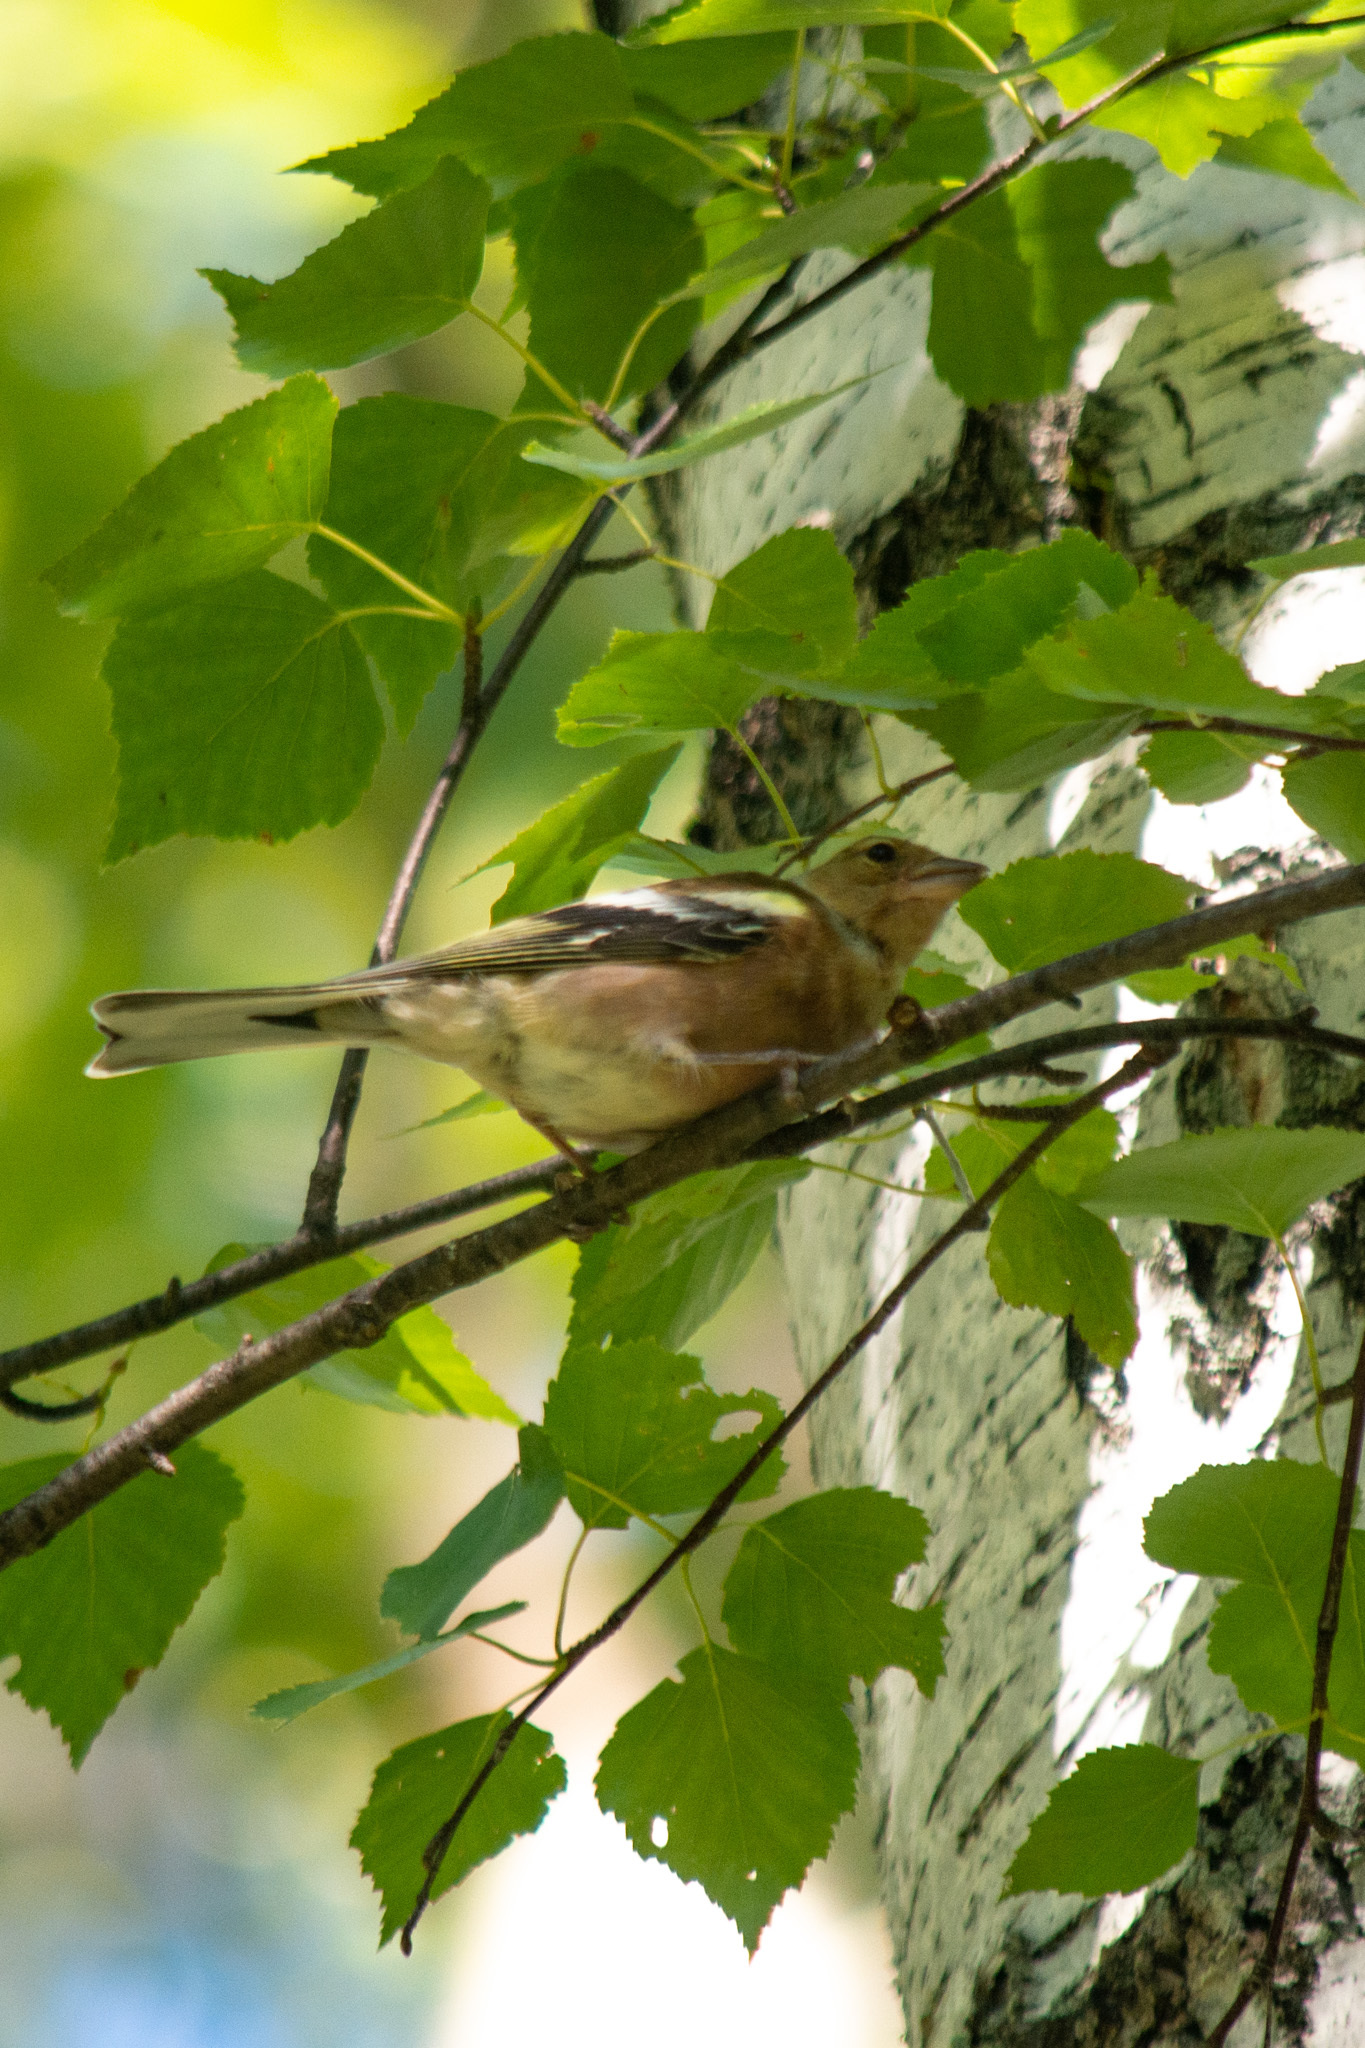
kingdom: Animalia
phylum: Chordata
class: Aves
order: Passeriformes
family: Fringillidae
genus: Fringilla
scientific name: Fringilla coelebs
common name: Common chaffinch
